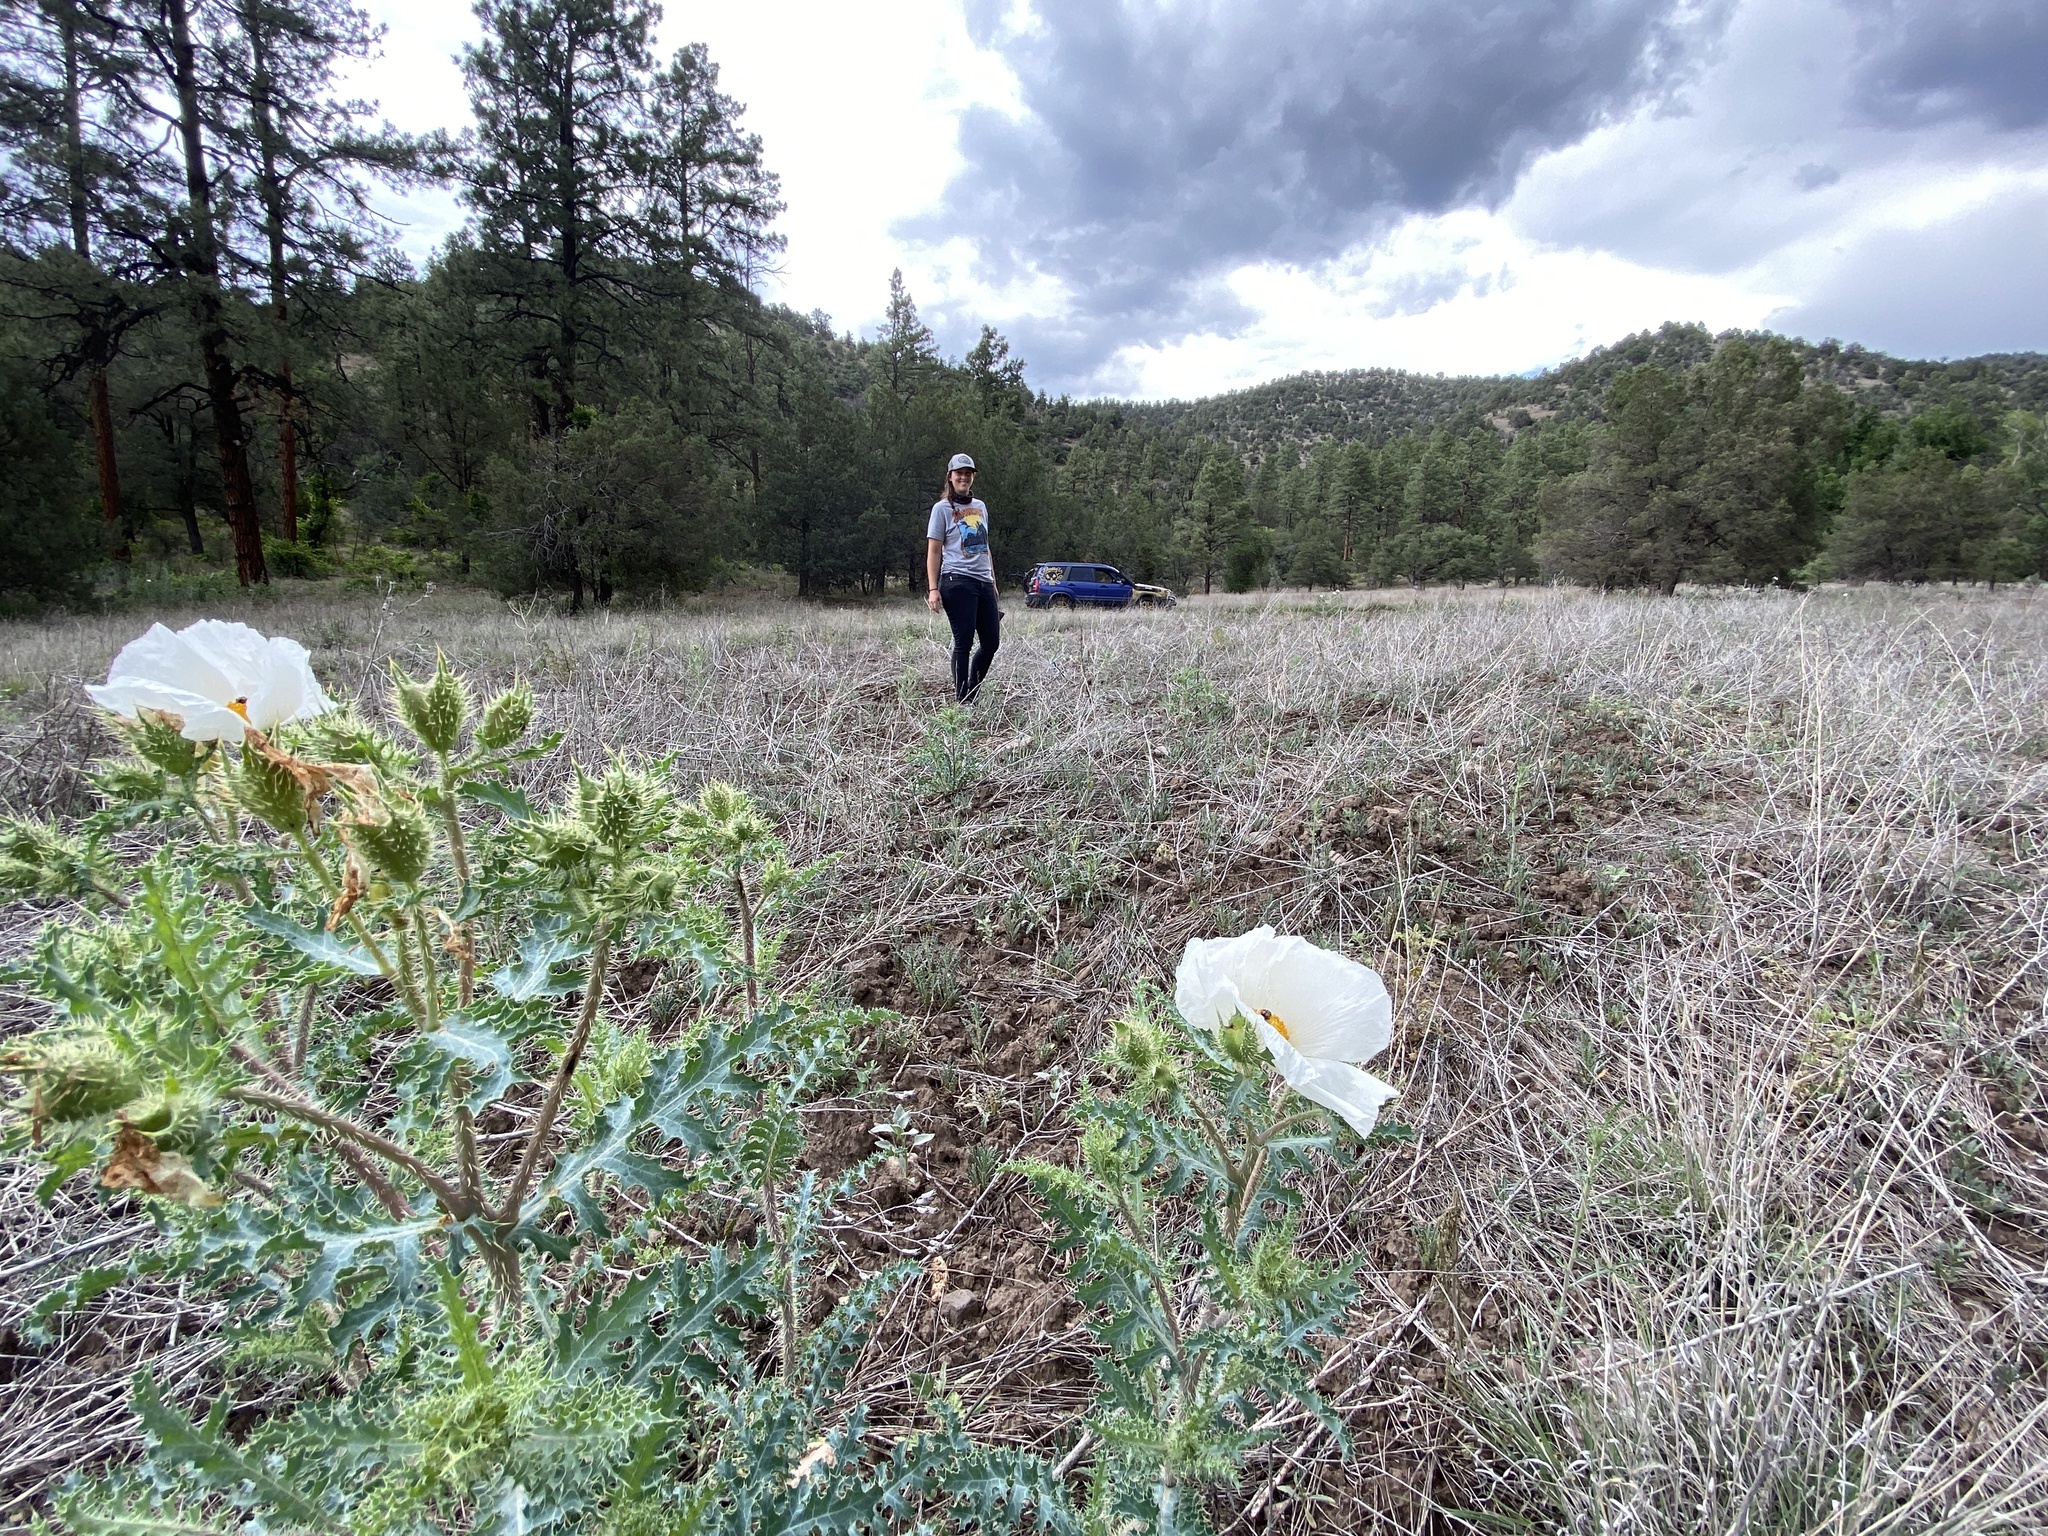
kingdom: Plantae
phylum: Tracheophyta
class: Magnoliopsida
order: Ranunculales
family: Papaveraceae
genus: Argemone
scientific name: Argemone pleiacantha
